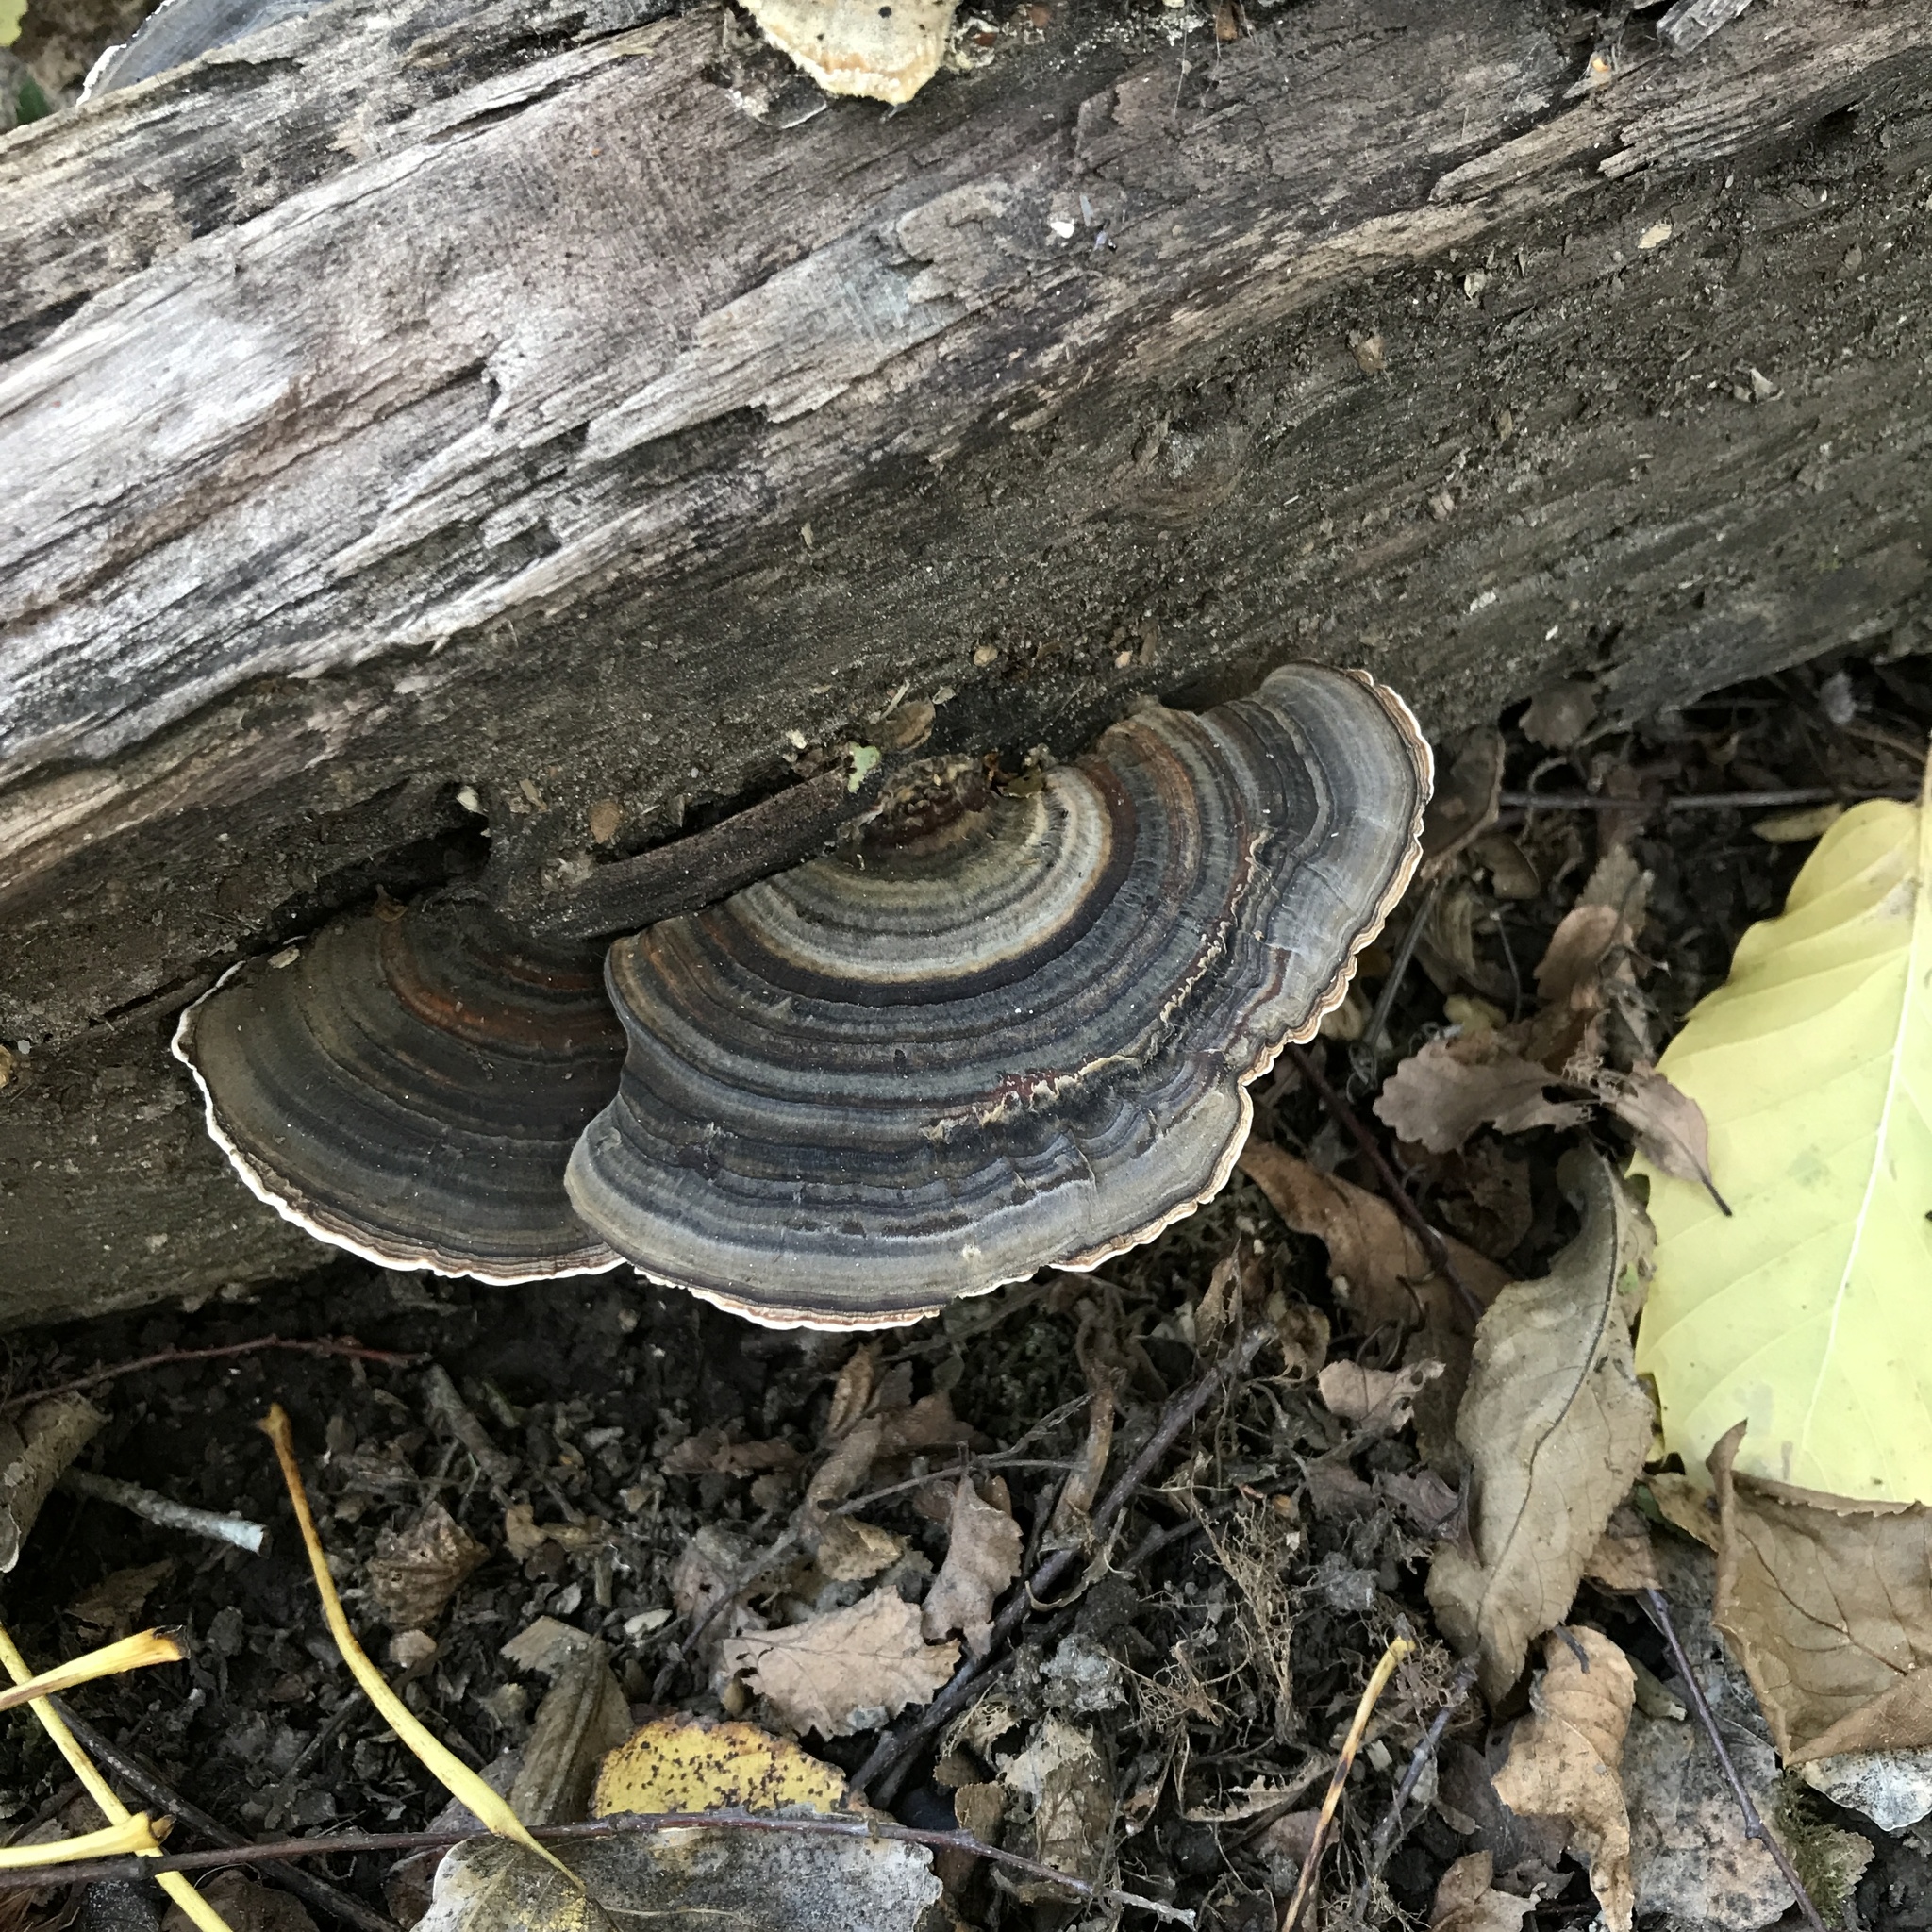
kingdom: Fungi
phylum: Basidiomycota
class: Agaricomycetes
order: Polyporales
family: Polyporaceae
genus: Trametes
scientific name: Trametes versicolor
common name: Turkeytail
